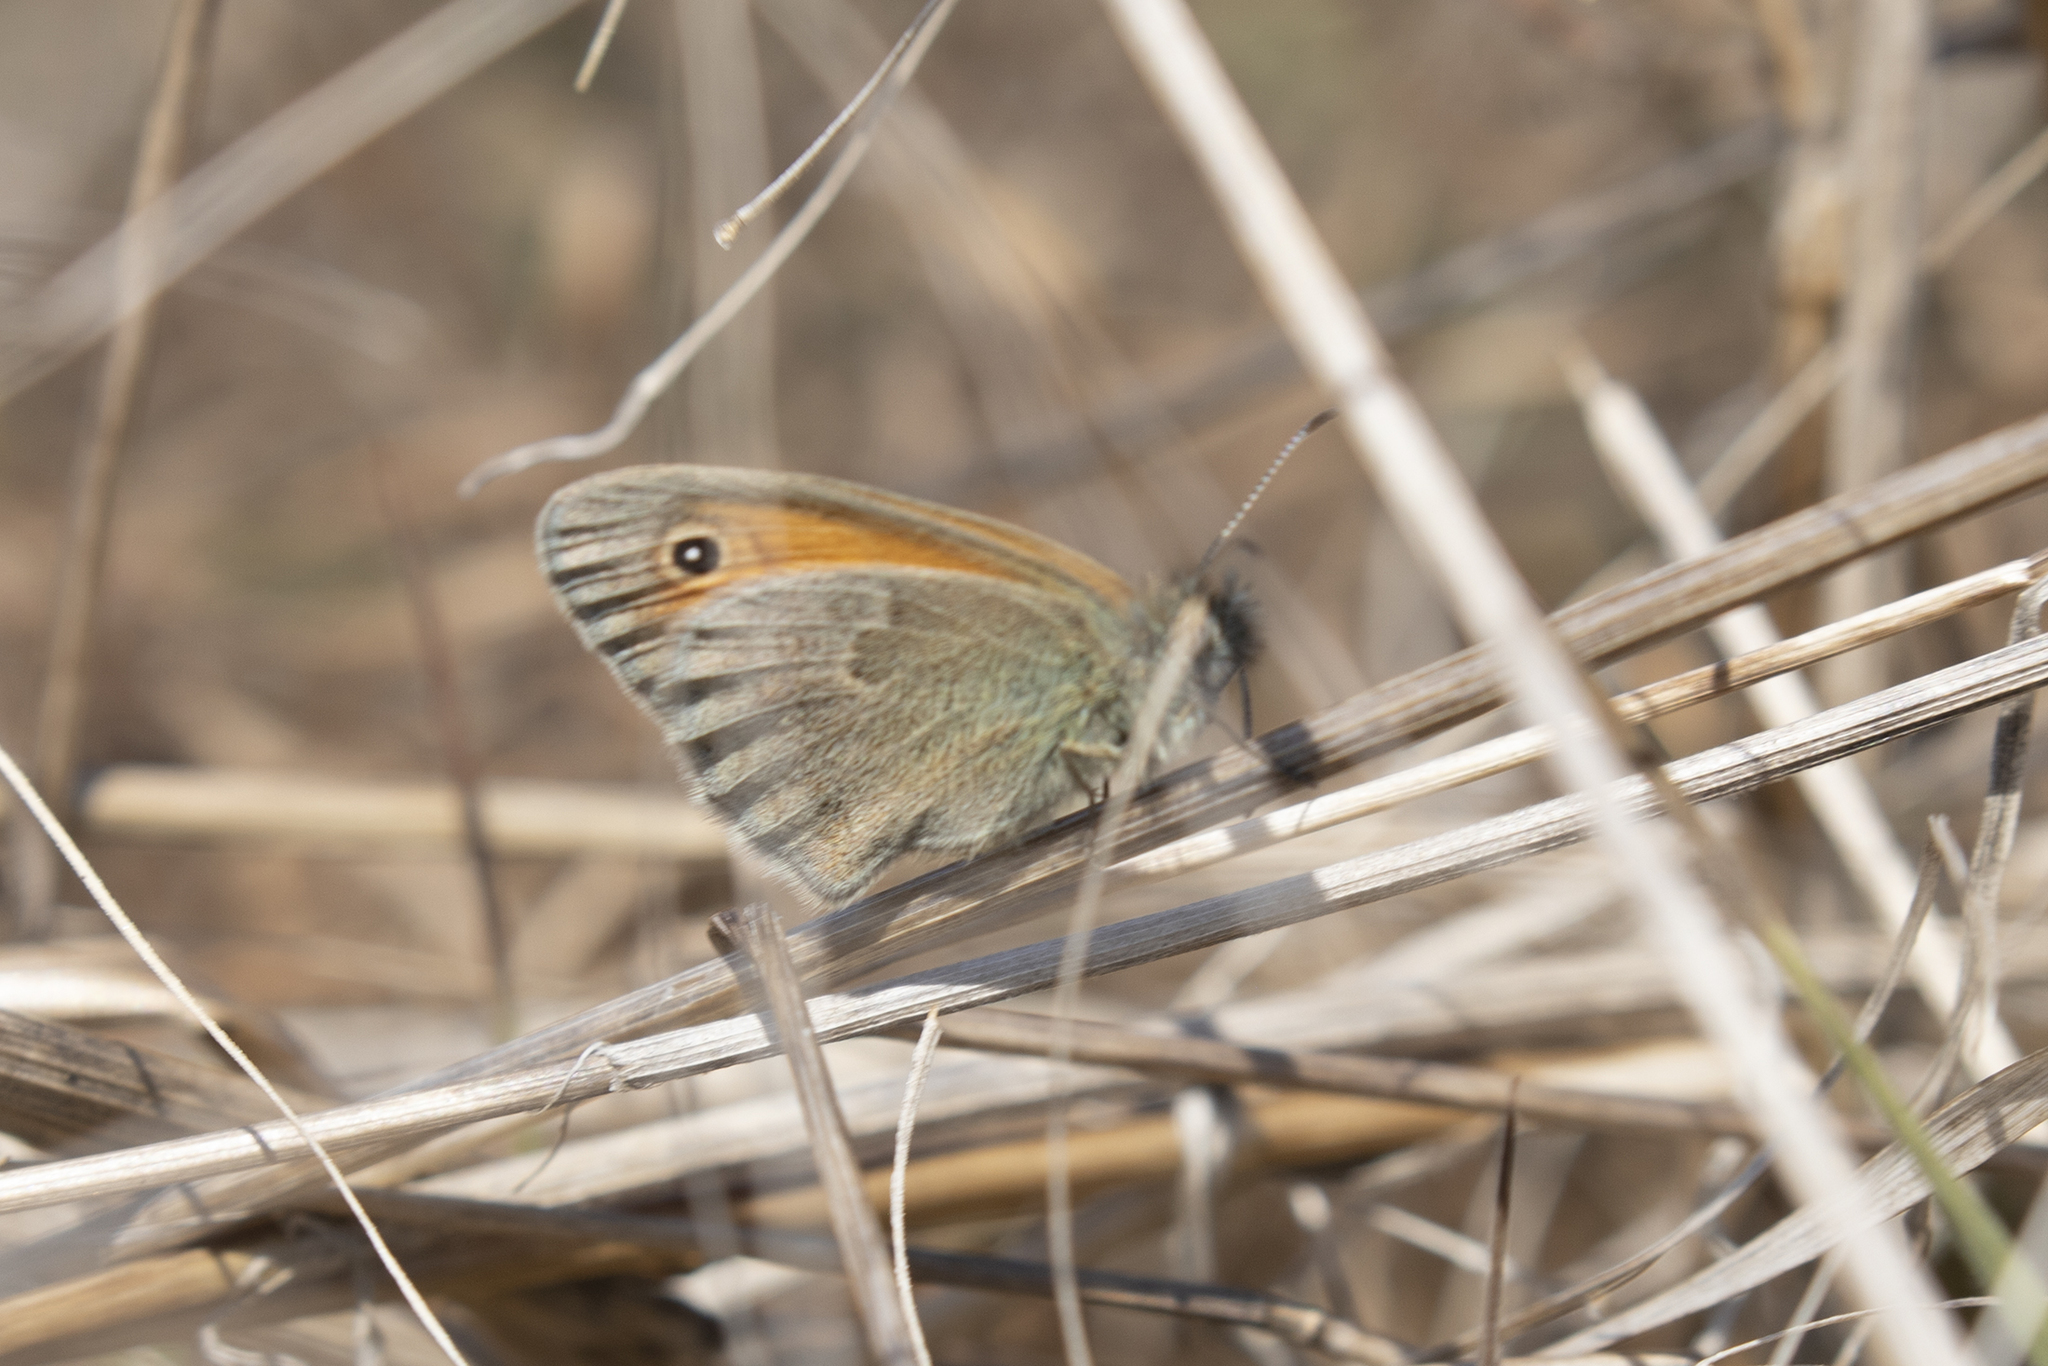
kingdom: Animalia
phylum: Arthropoda
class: Insecta
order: Lepidoptera
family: Nymphalidae
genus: Coenonympha
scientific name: Coenonympha pamphilus
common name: Small heath
